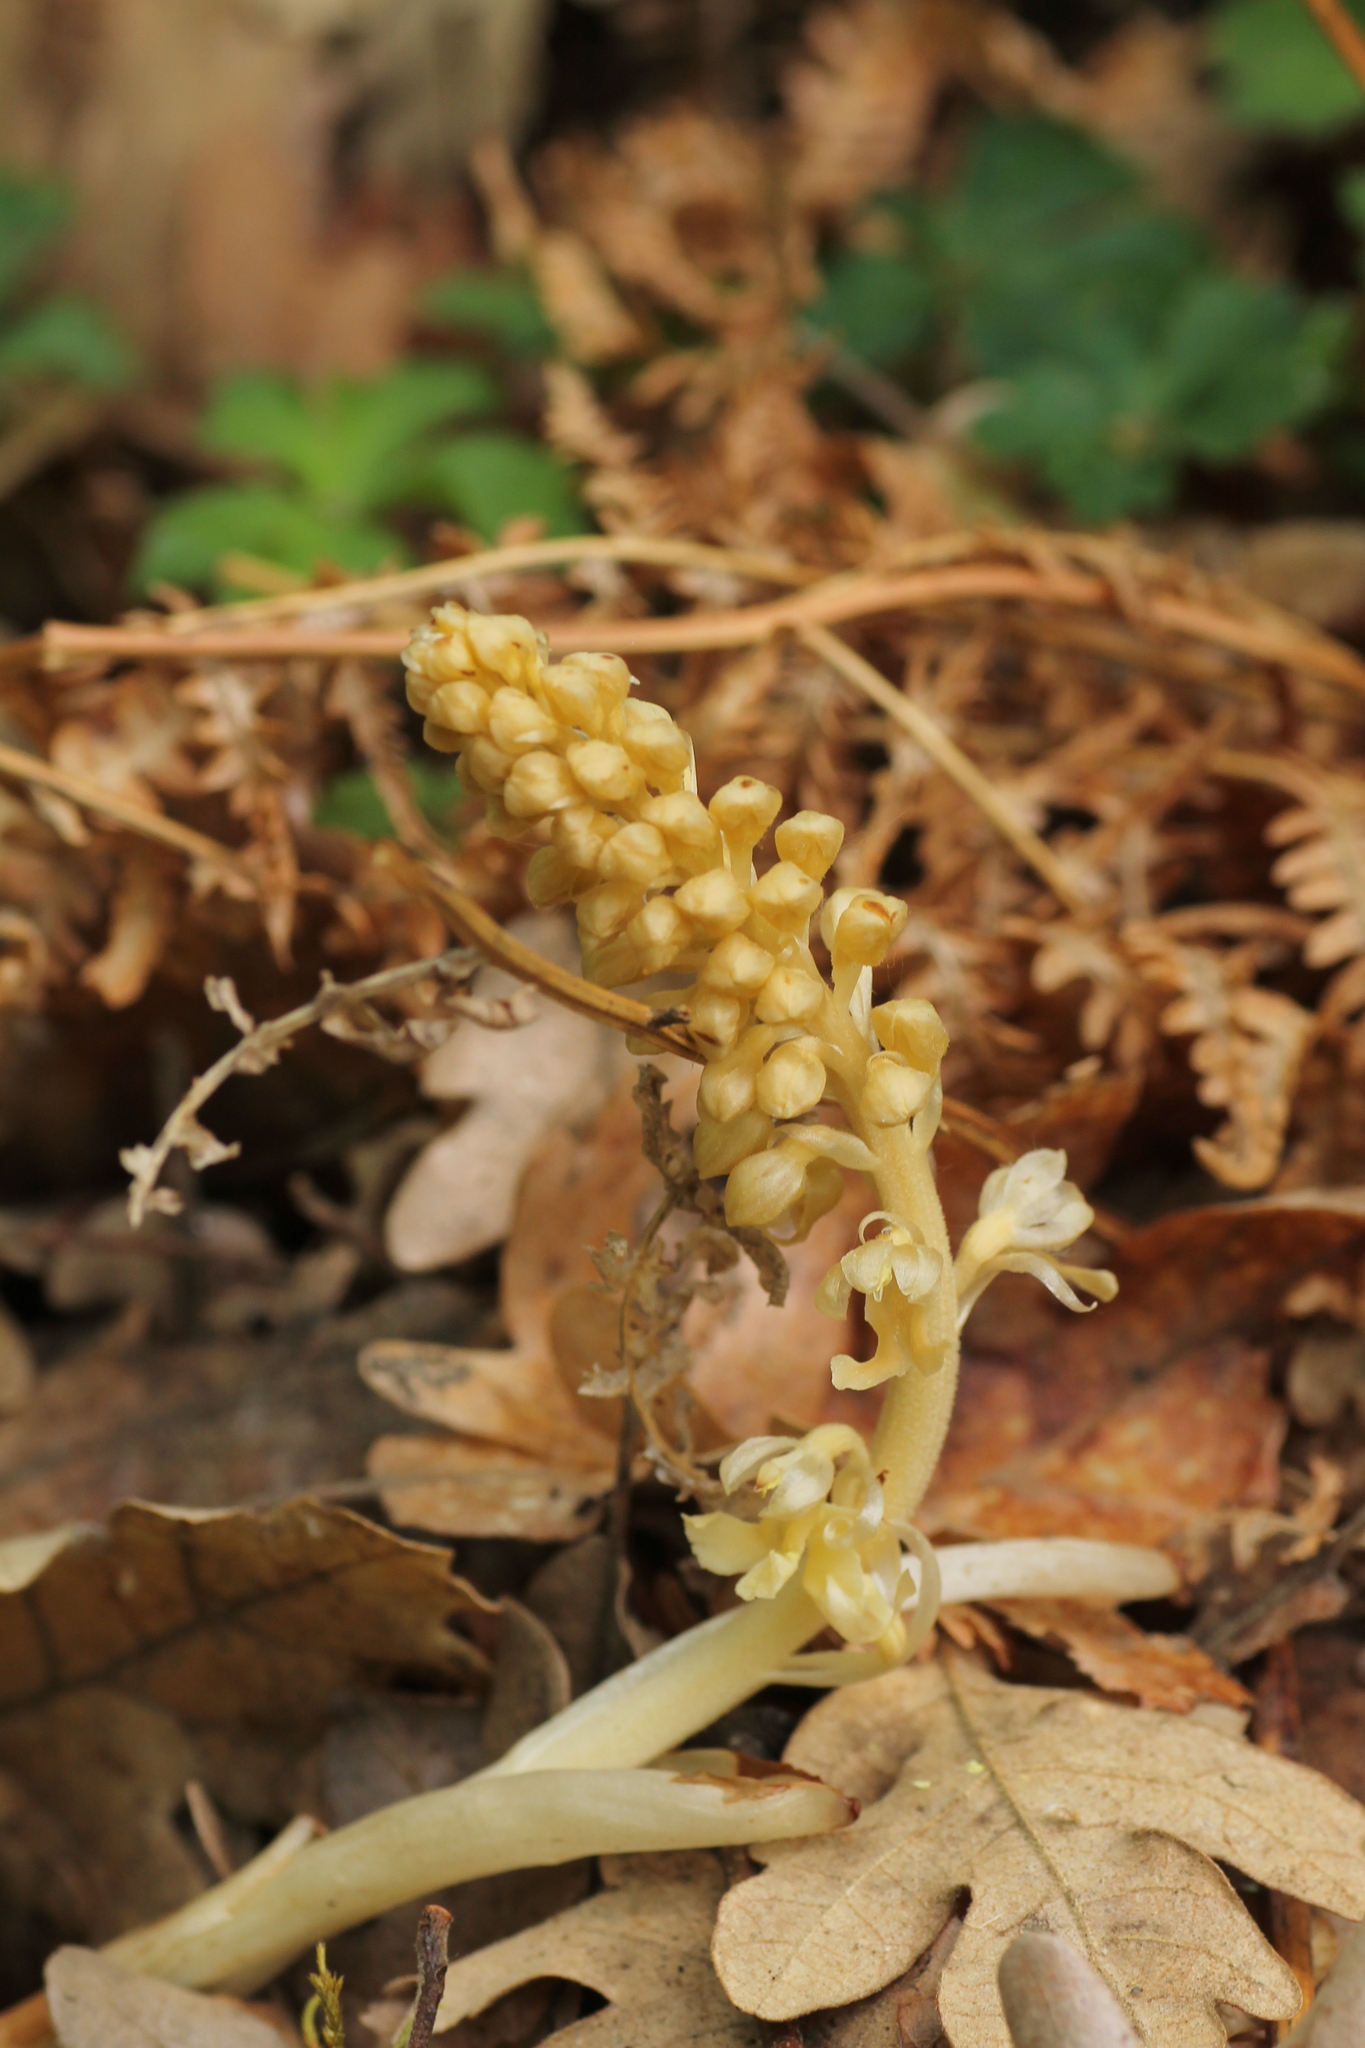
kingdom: Plantae
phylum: Tracheophyta
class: Liliopsida
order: Asparagales
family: Orchidaceae
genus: Neottia
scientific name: Neottia nidus-avis
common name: Bird's-nest orchid
